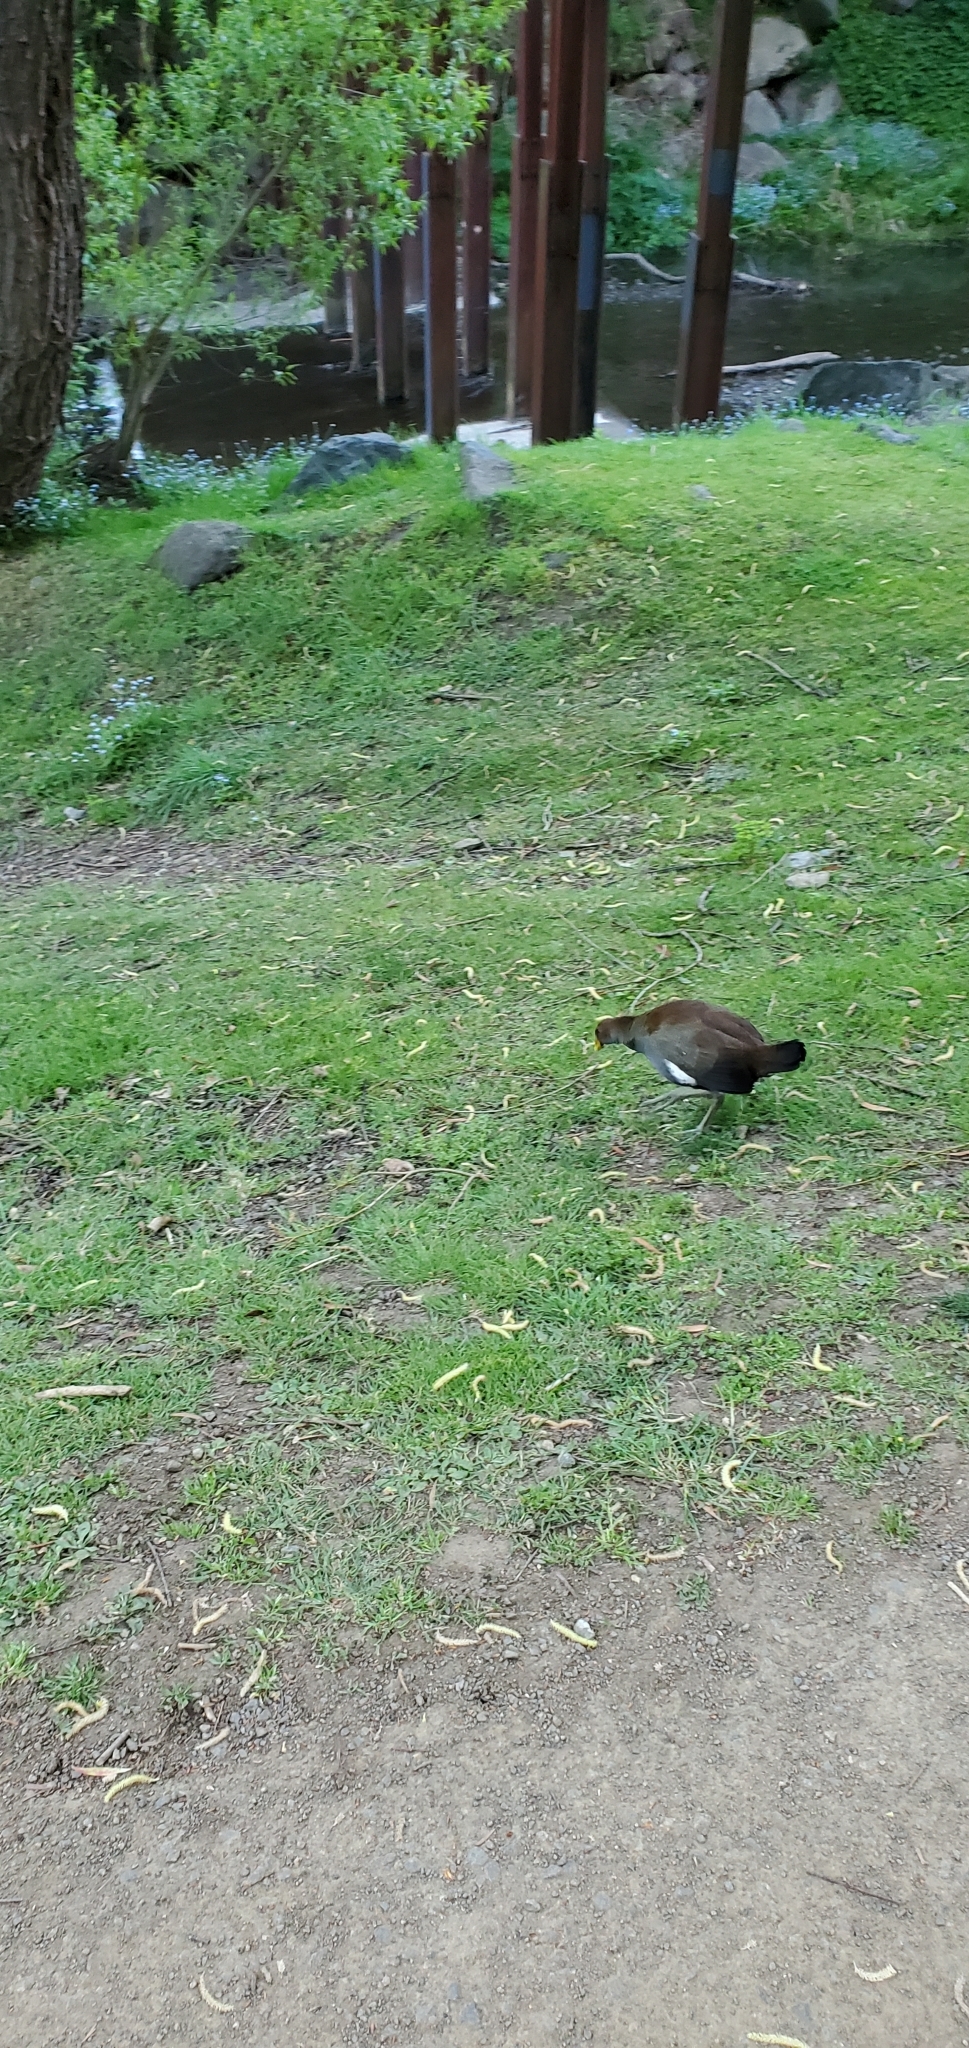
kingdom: Animalia
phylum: Chordata
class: Aves
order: Gruiformes
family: Rallidae
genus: Gallinula
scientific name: Gallinula mortierii
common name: Tasmanian nativehen
